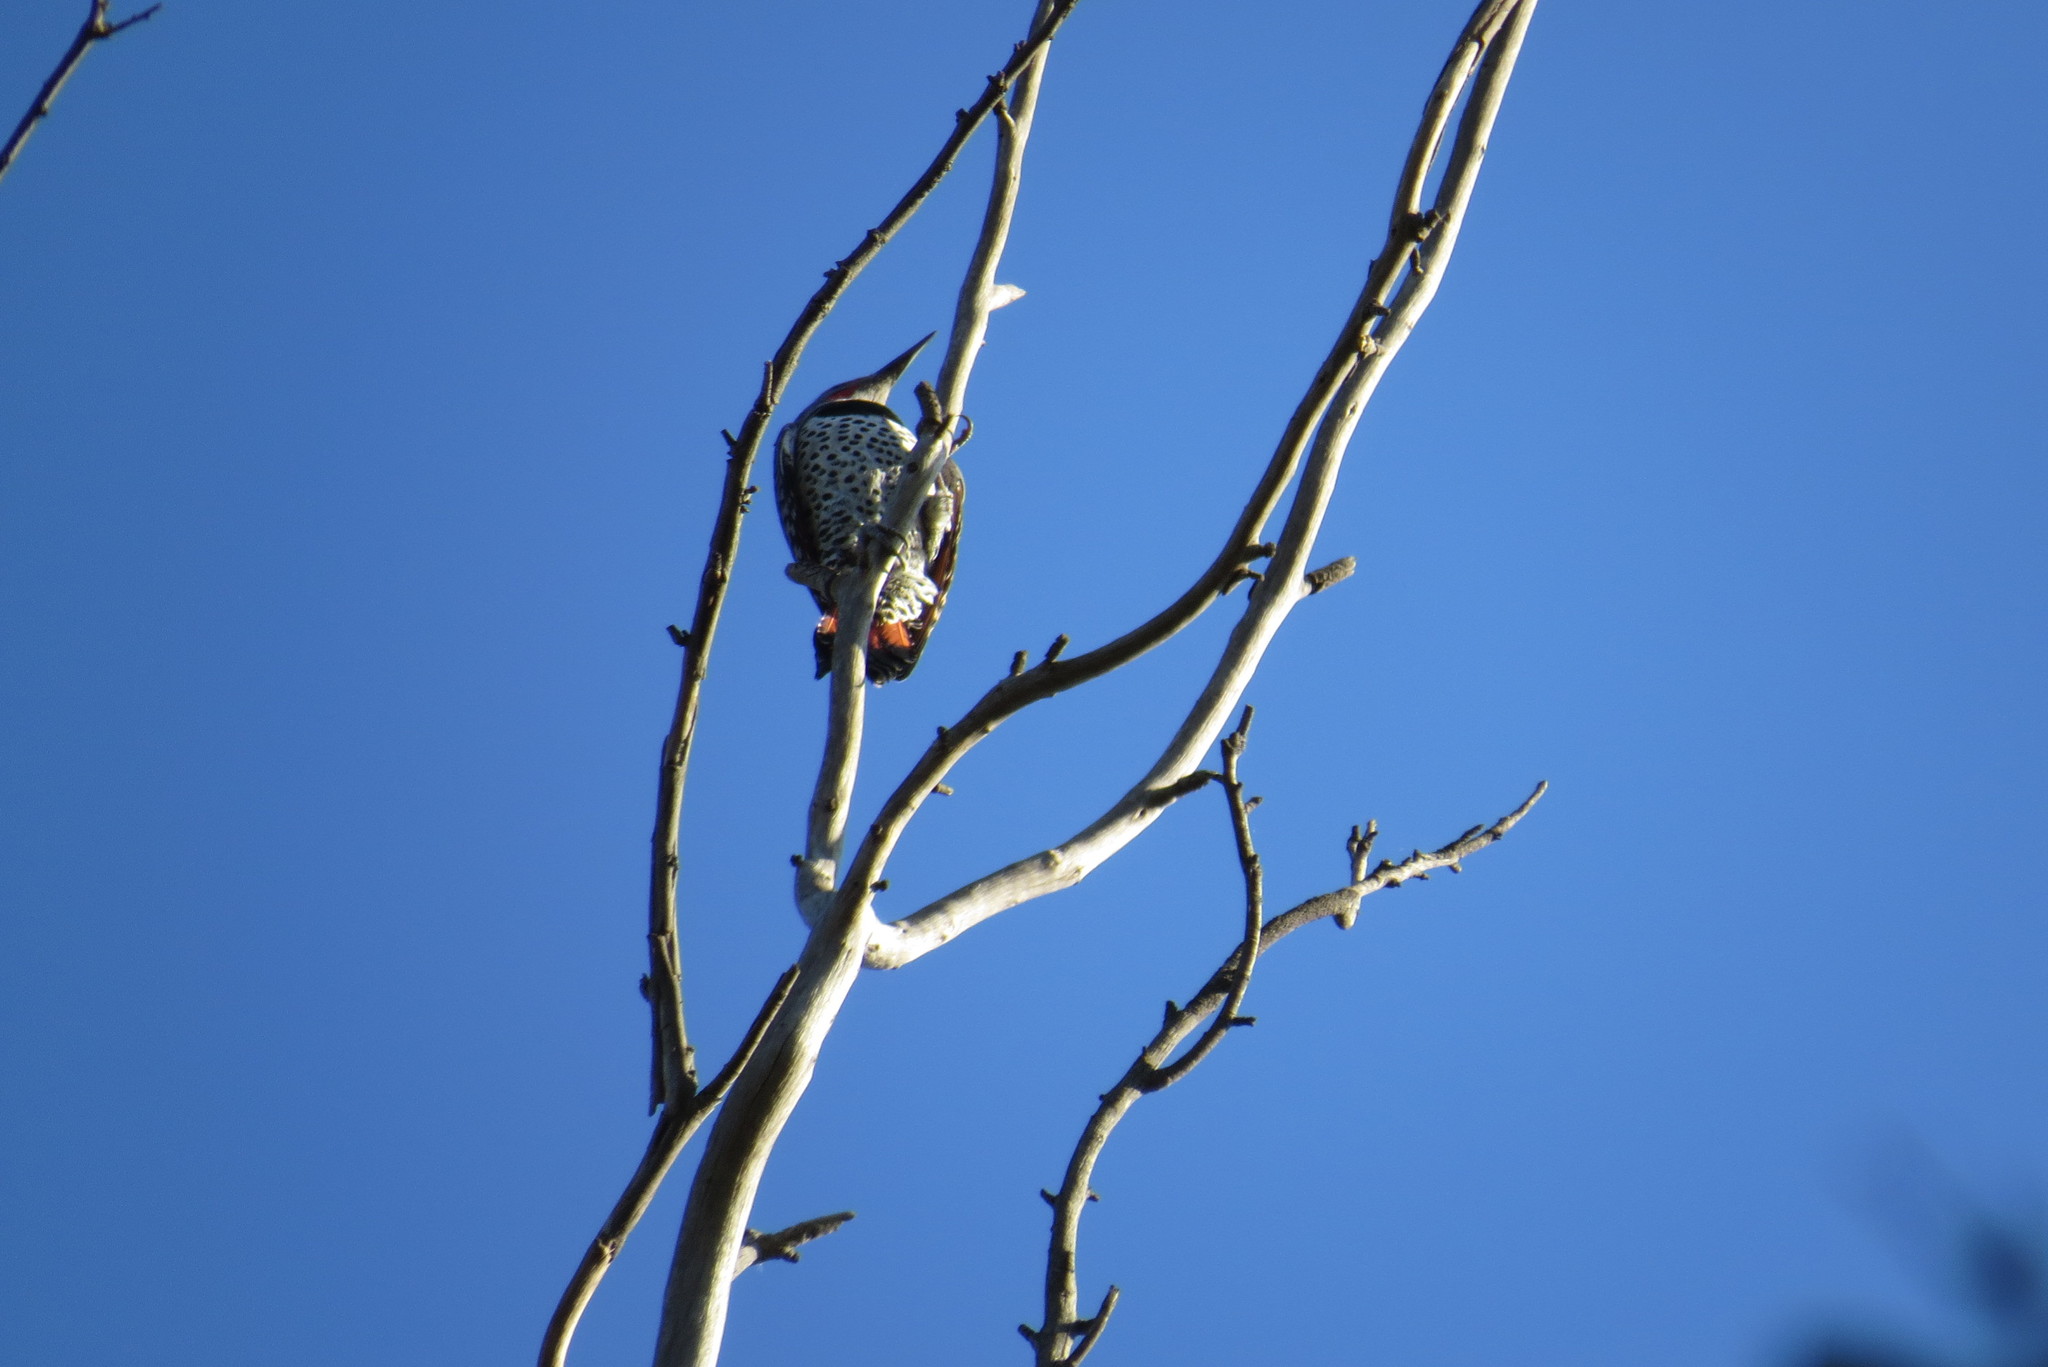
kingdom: Animalia
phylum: Chordata
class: Aves
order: Piciformes
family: Picidae
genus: Colaptes
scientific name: Colaptes auratus
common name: Northern flicker
